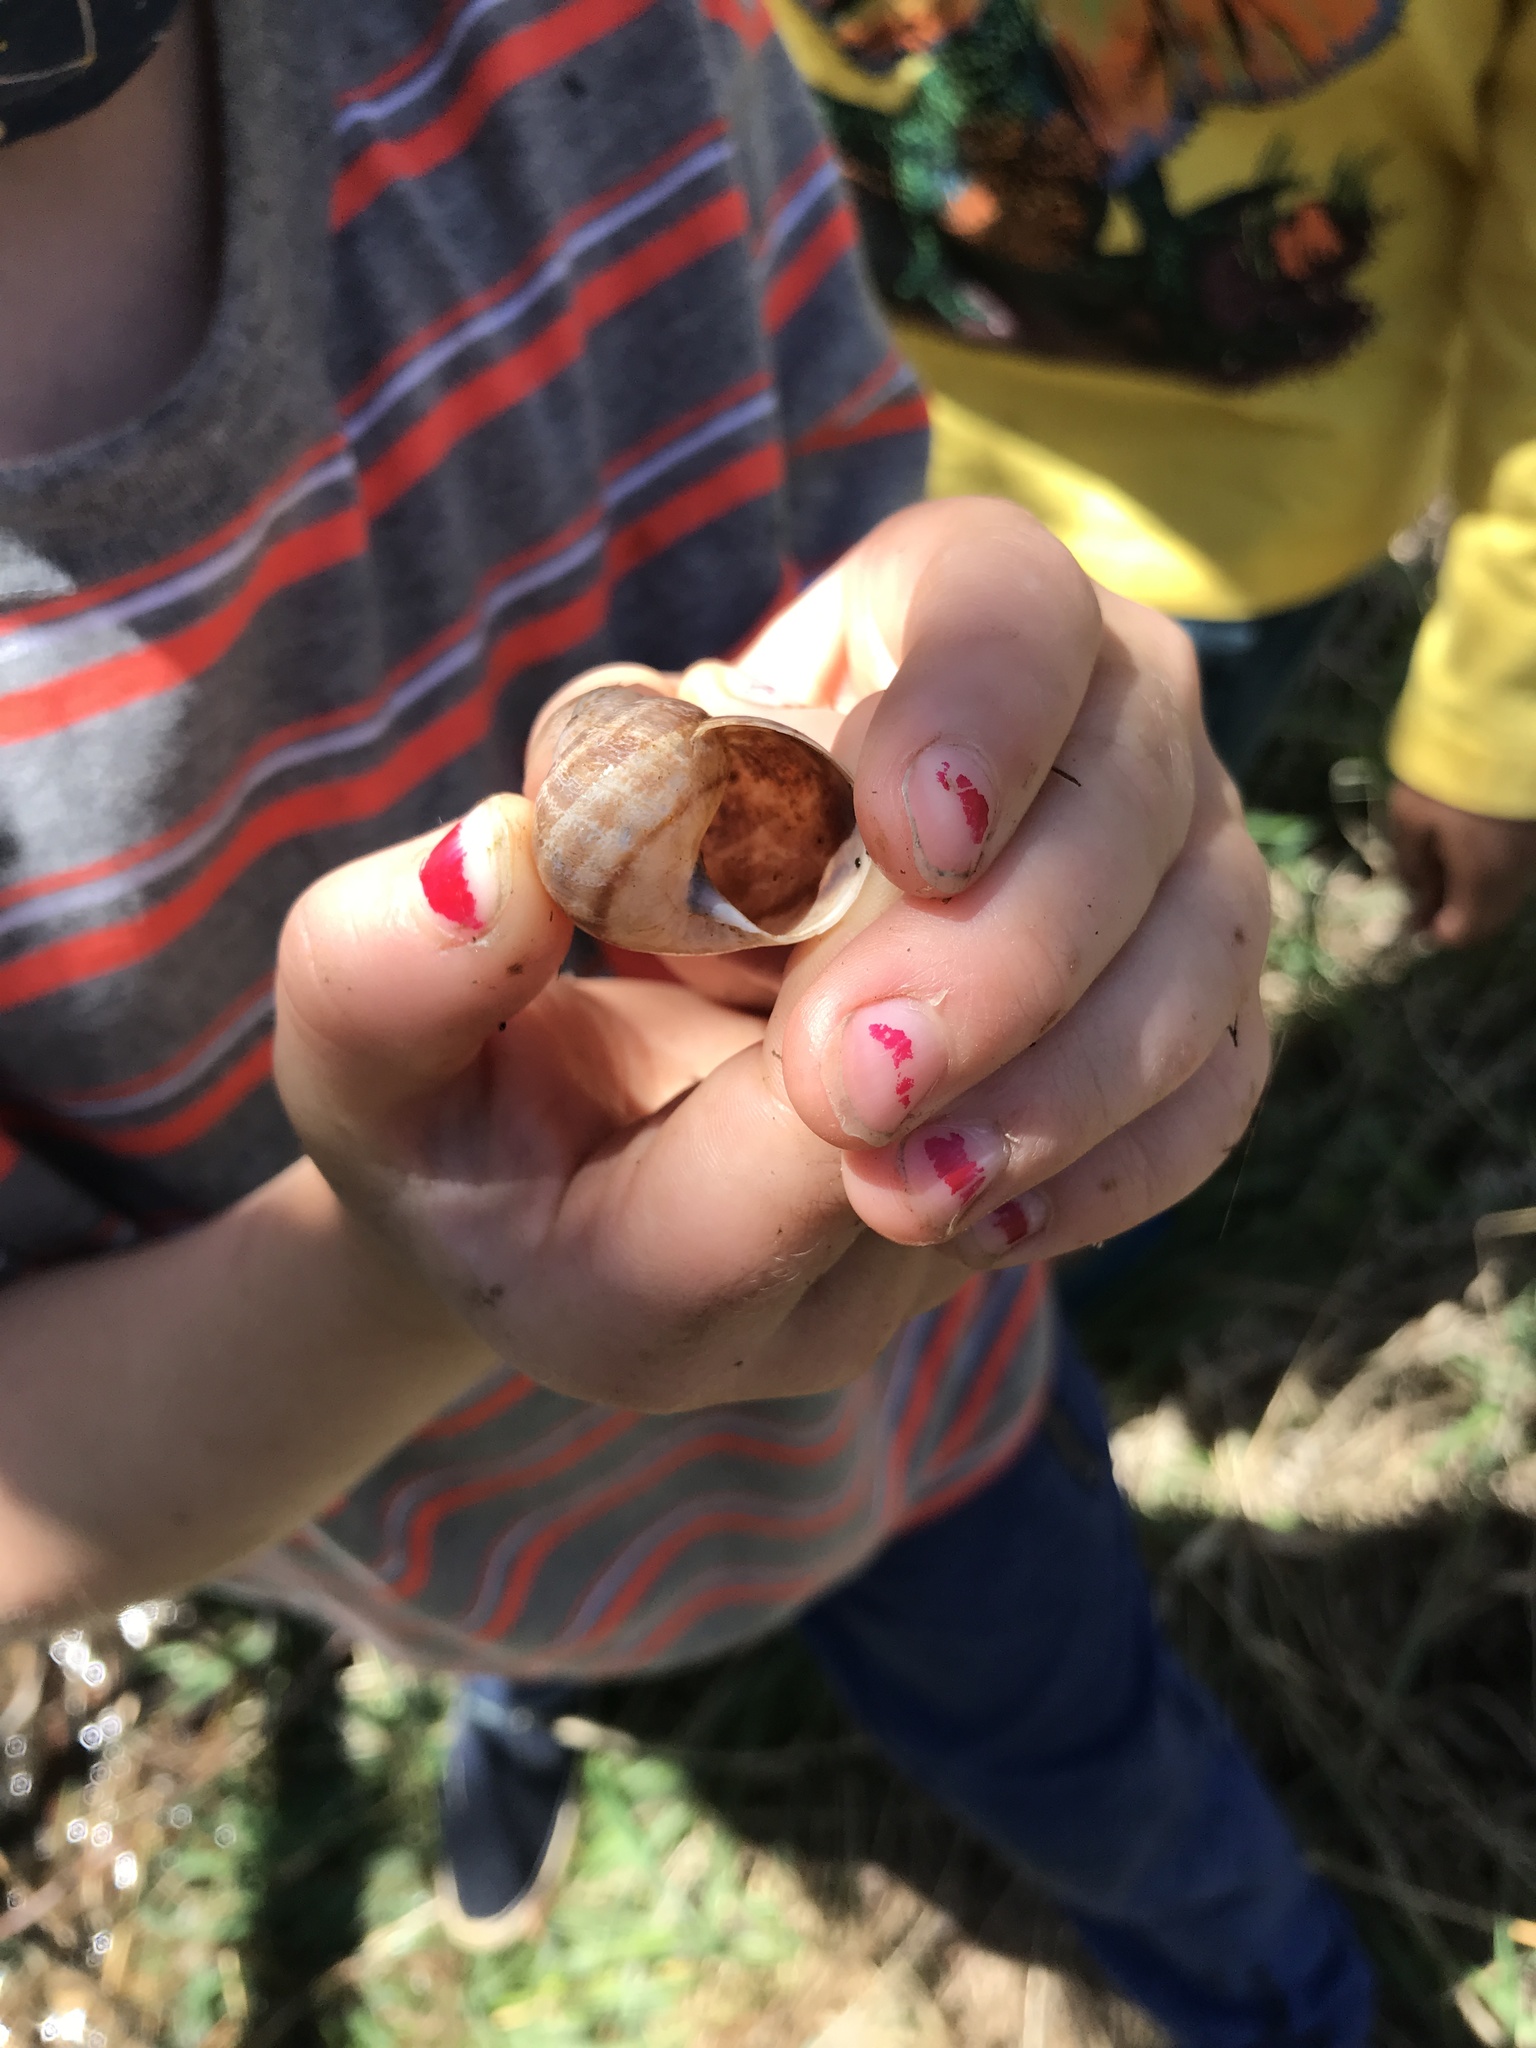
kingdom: Animalia
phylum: Mollusca
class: Gastropoda
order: Stylommatophora
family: Helicidae
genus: Cornu
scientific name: Cornu aspersum
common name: Brown garden snail
